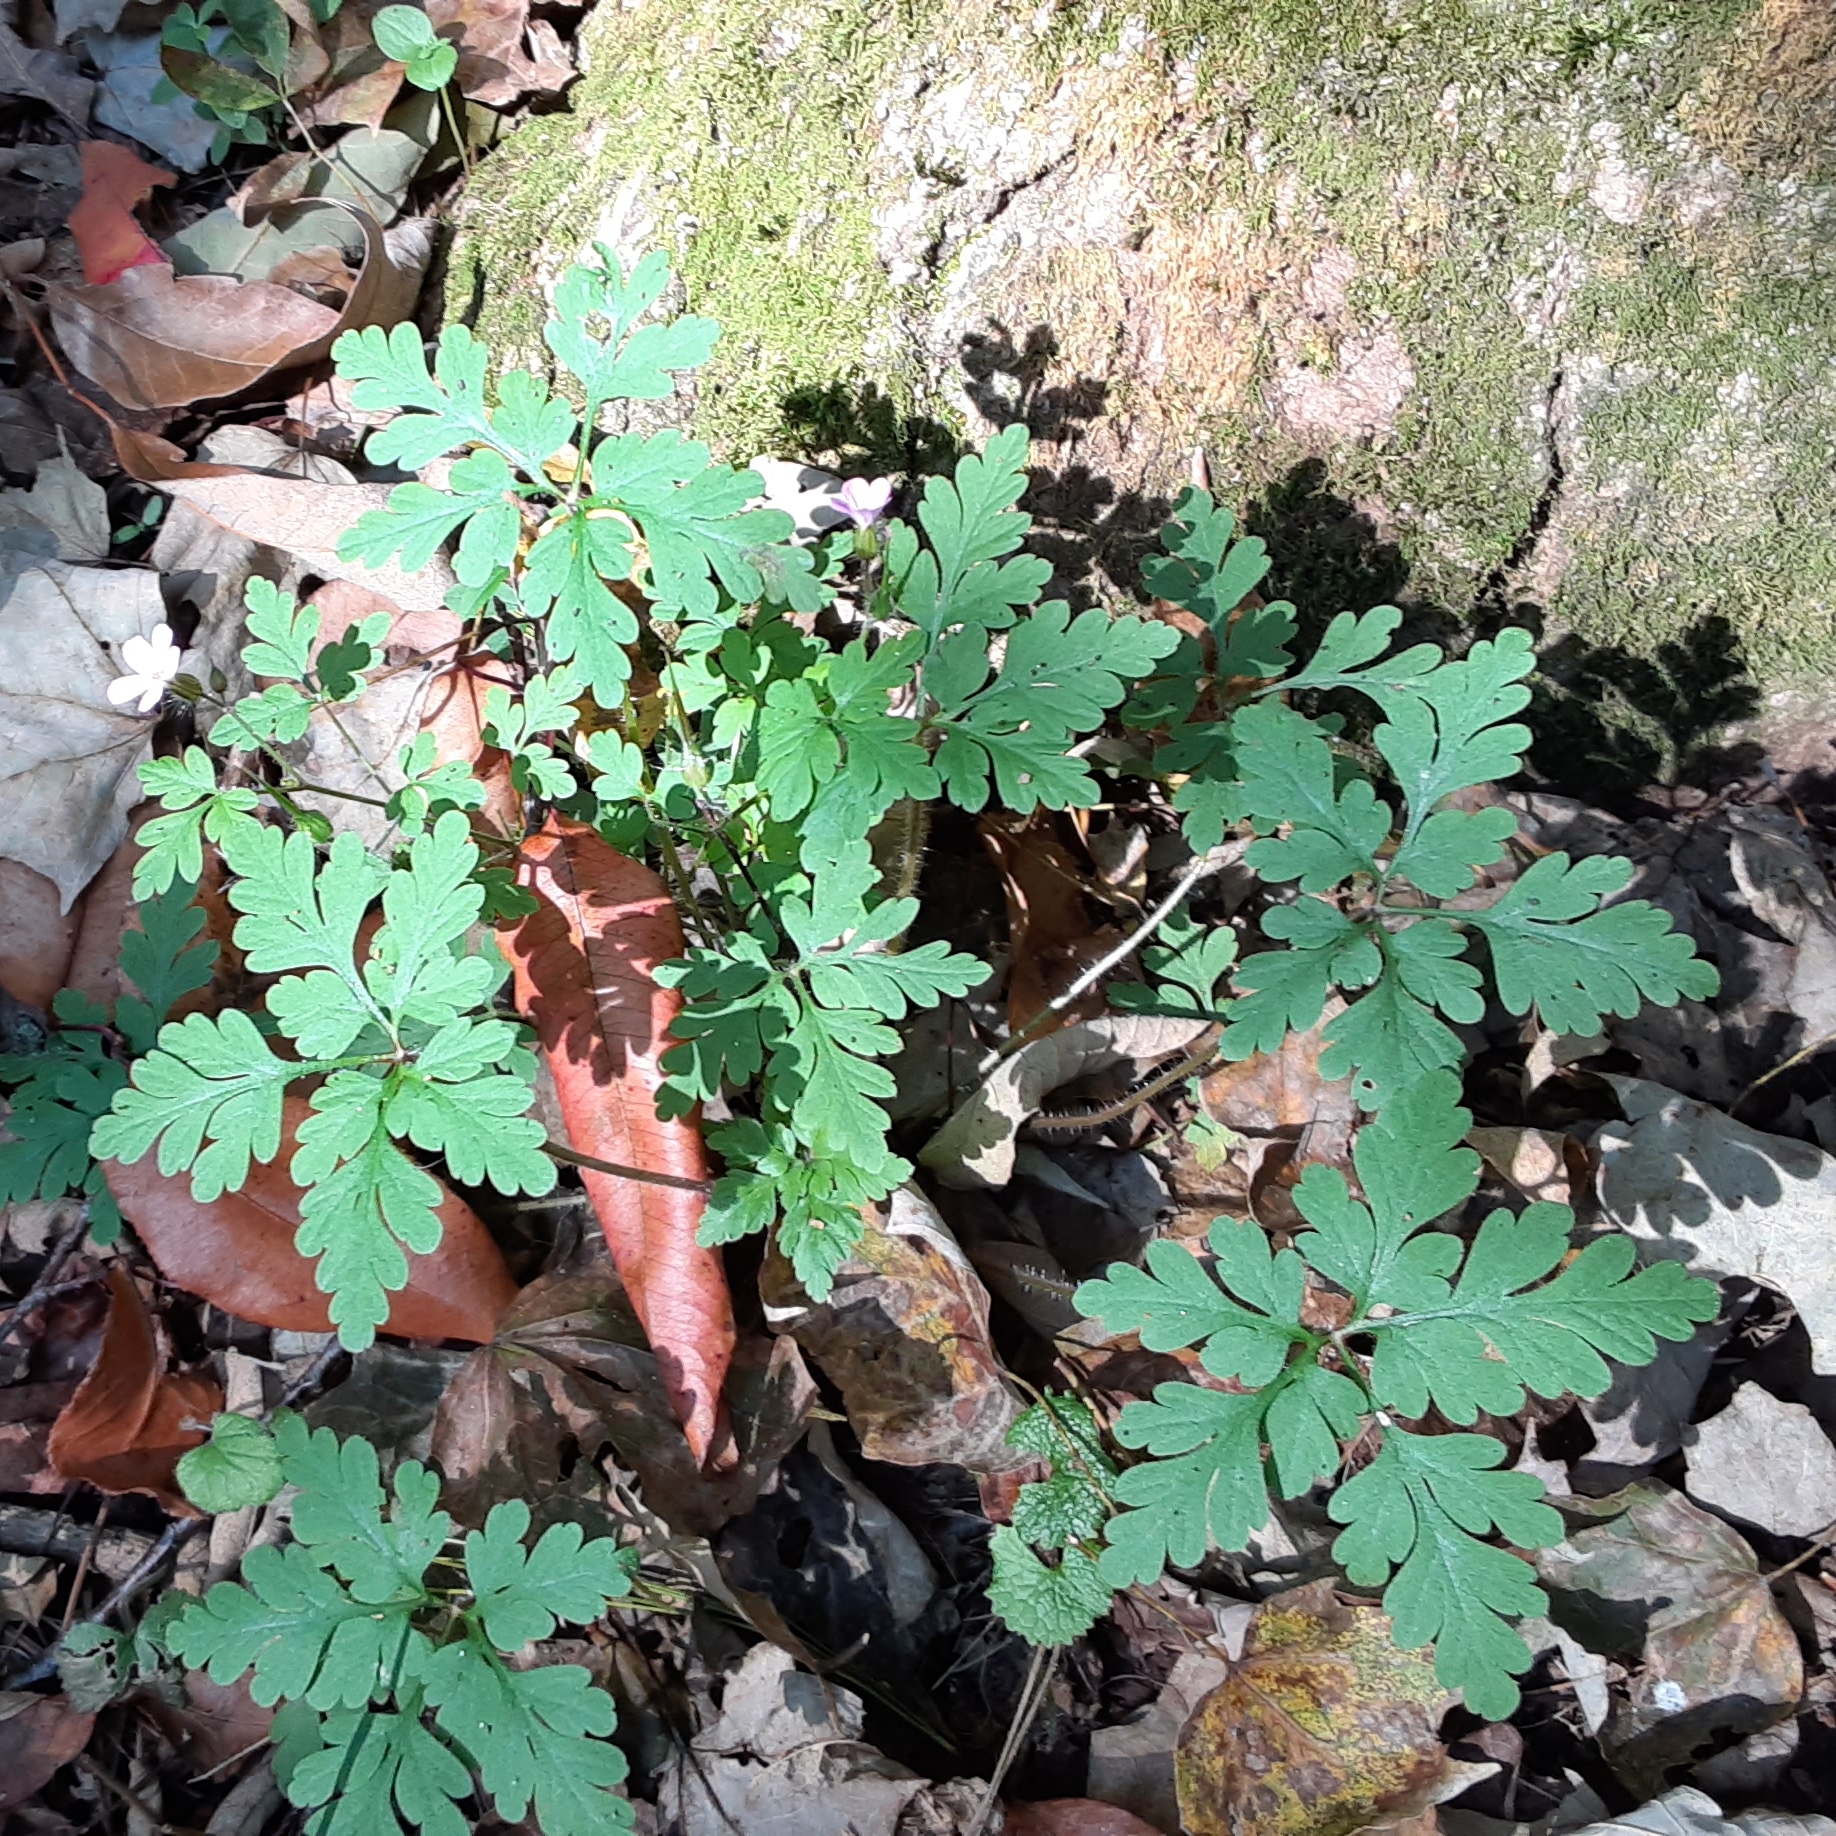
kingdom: Plantae
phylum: Tracheophyta
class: Magnoliopsida
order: Geraniales
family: Geraniaceae
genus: Geranium
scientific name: Geranium robertianum
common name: Herb-robert
